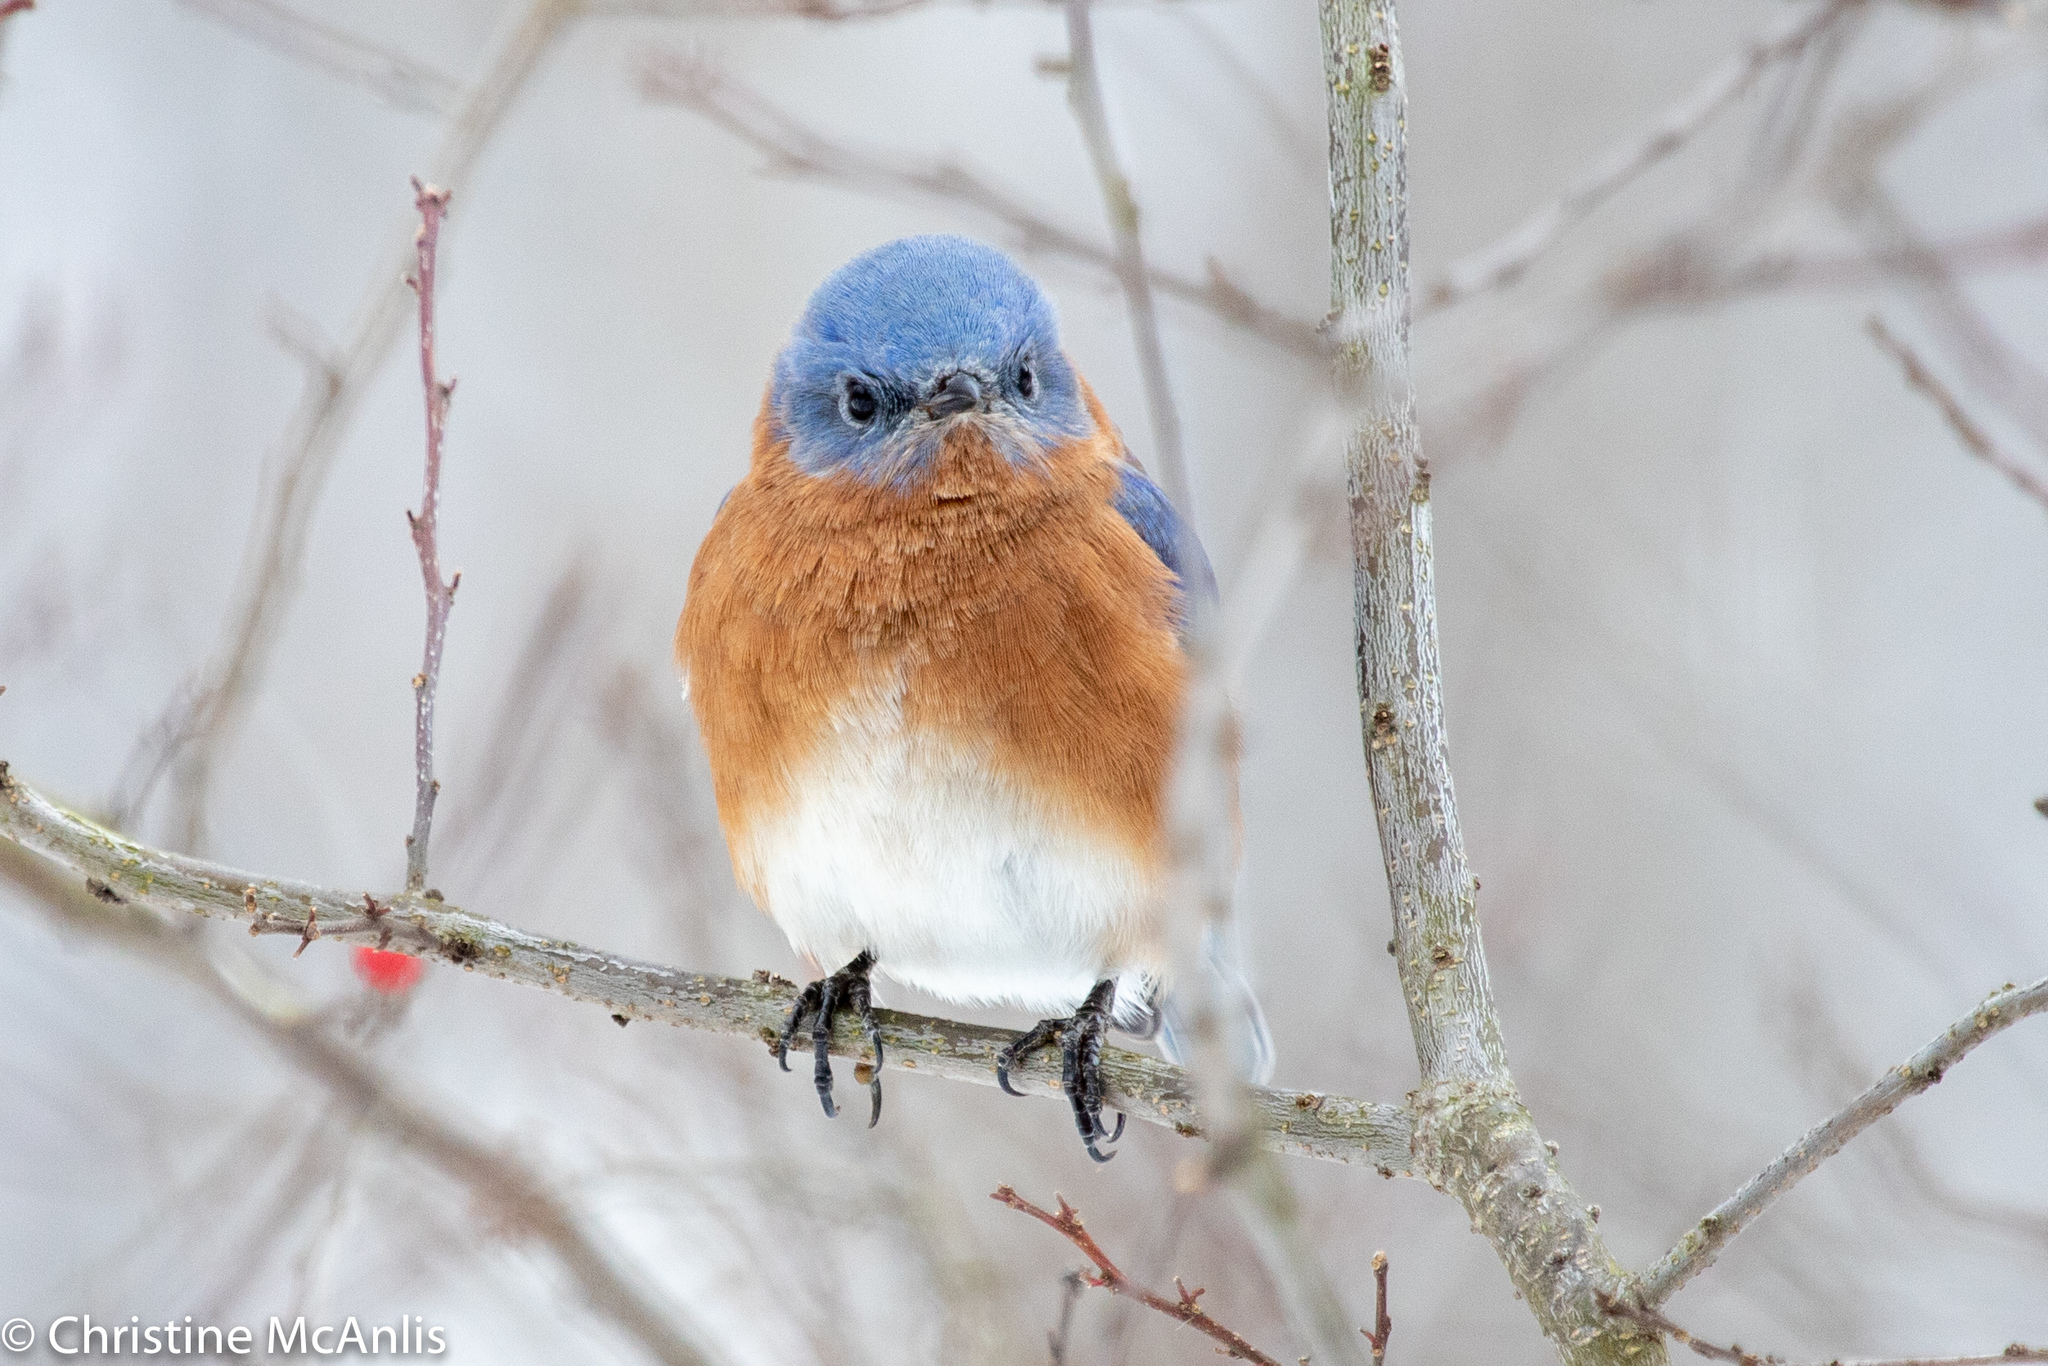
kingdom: Animalia
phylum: Chordata
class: Aves
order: Passeriformes
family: Turdidae
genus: Sialia
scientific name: Sialia sialis
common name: Eastern bluebird
